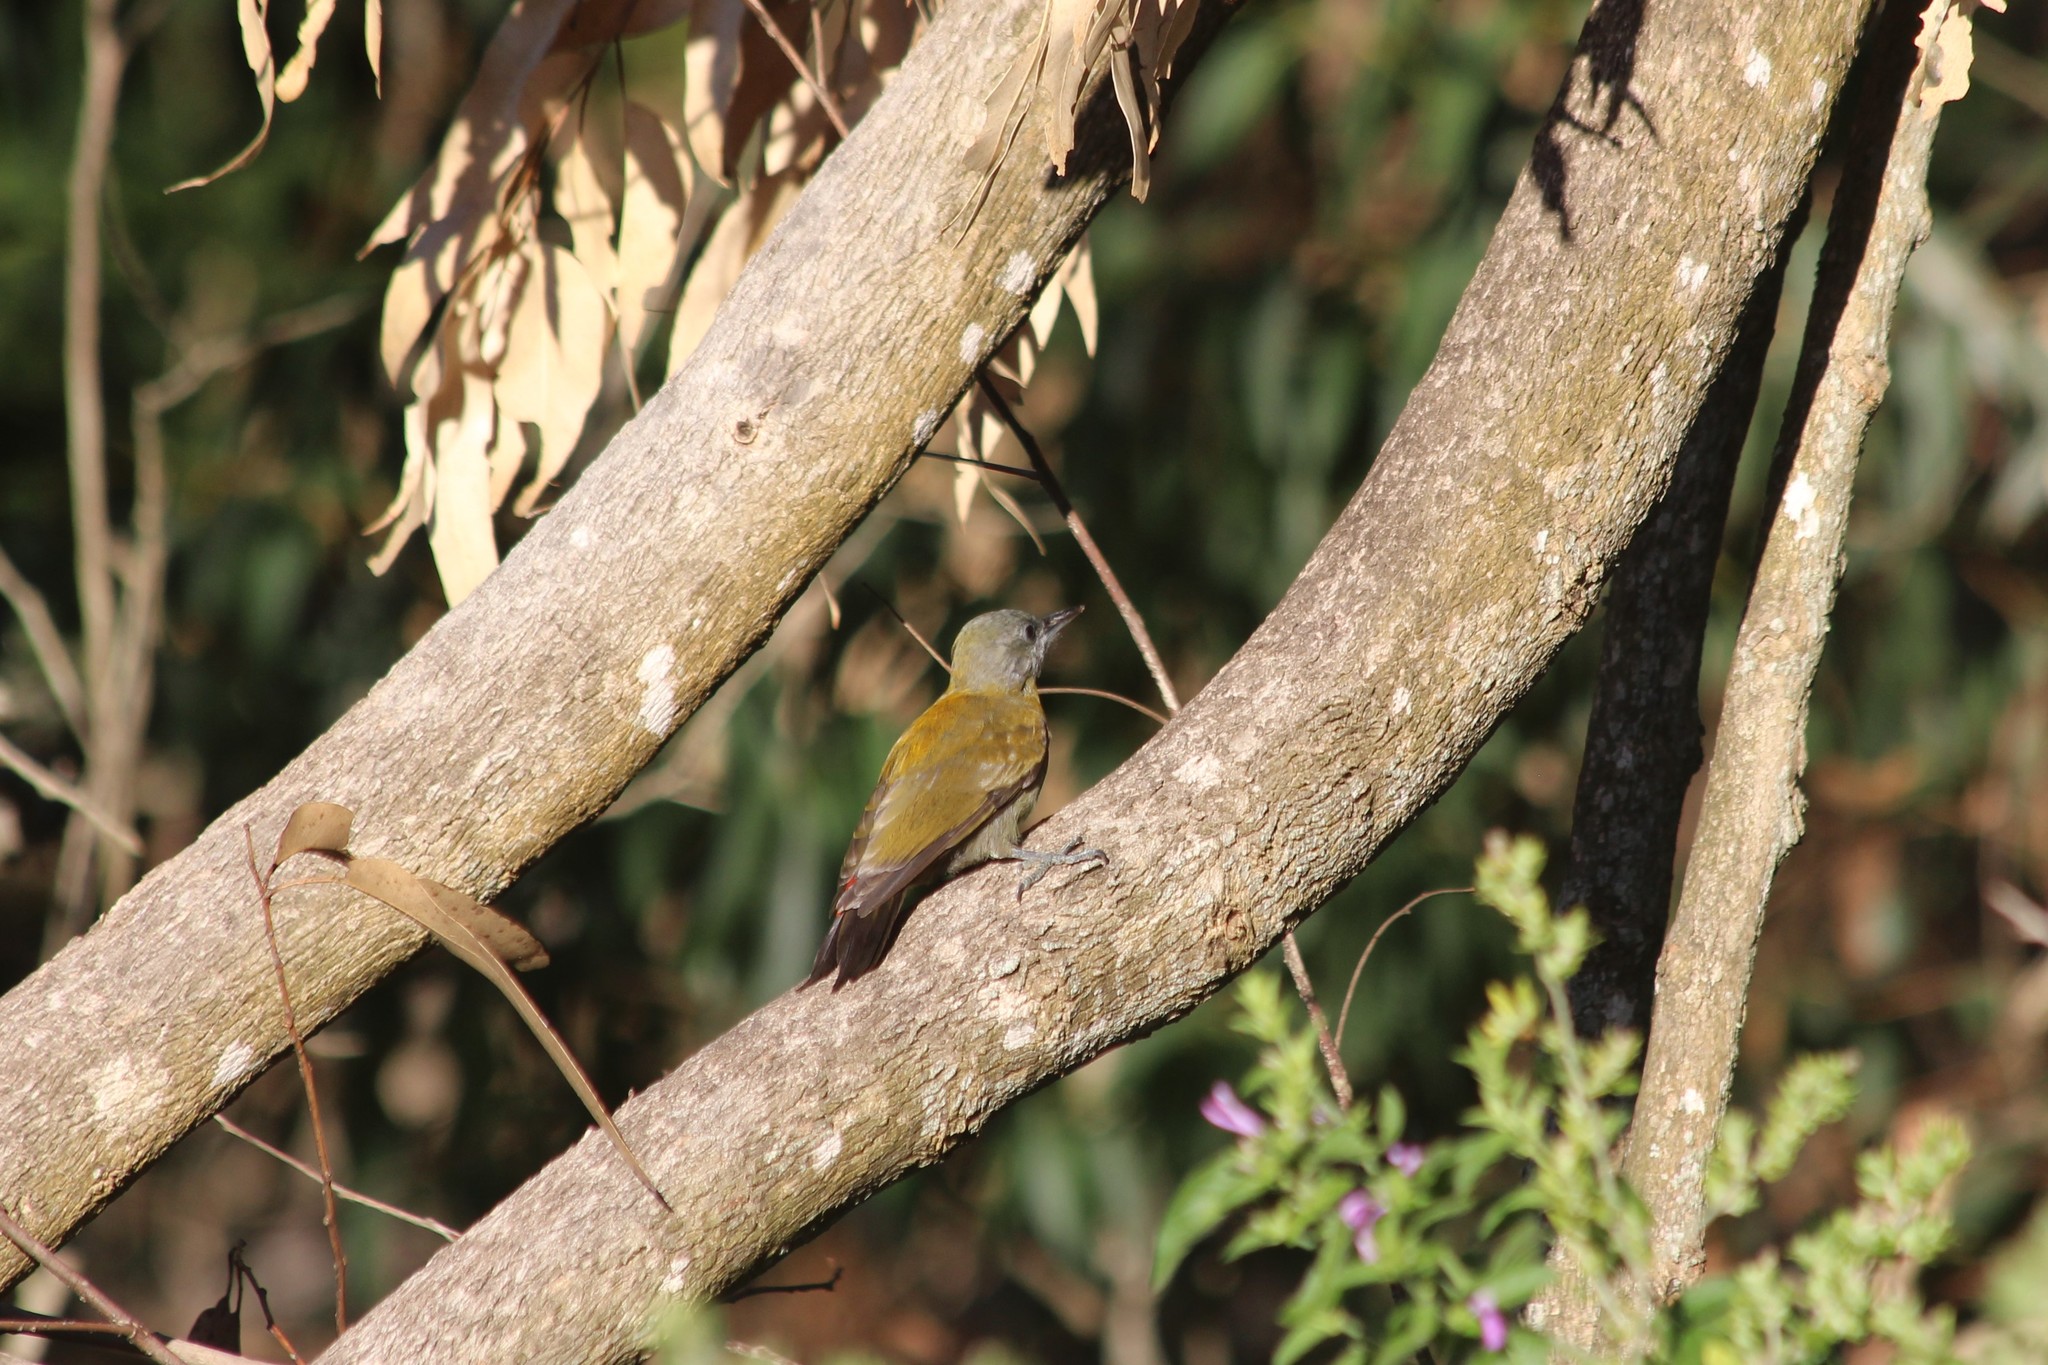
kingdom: Animalia
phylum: Chordata
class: Aves
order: Piciformes
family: Picidae
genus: Dendropicos
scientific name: Dendropicos griseocephalus
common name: Olive woodpecker
